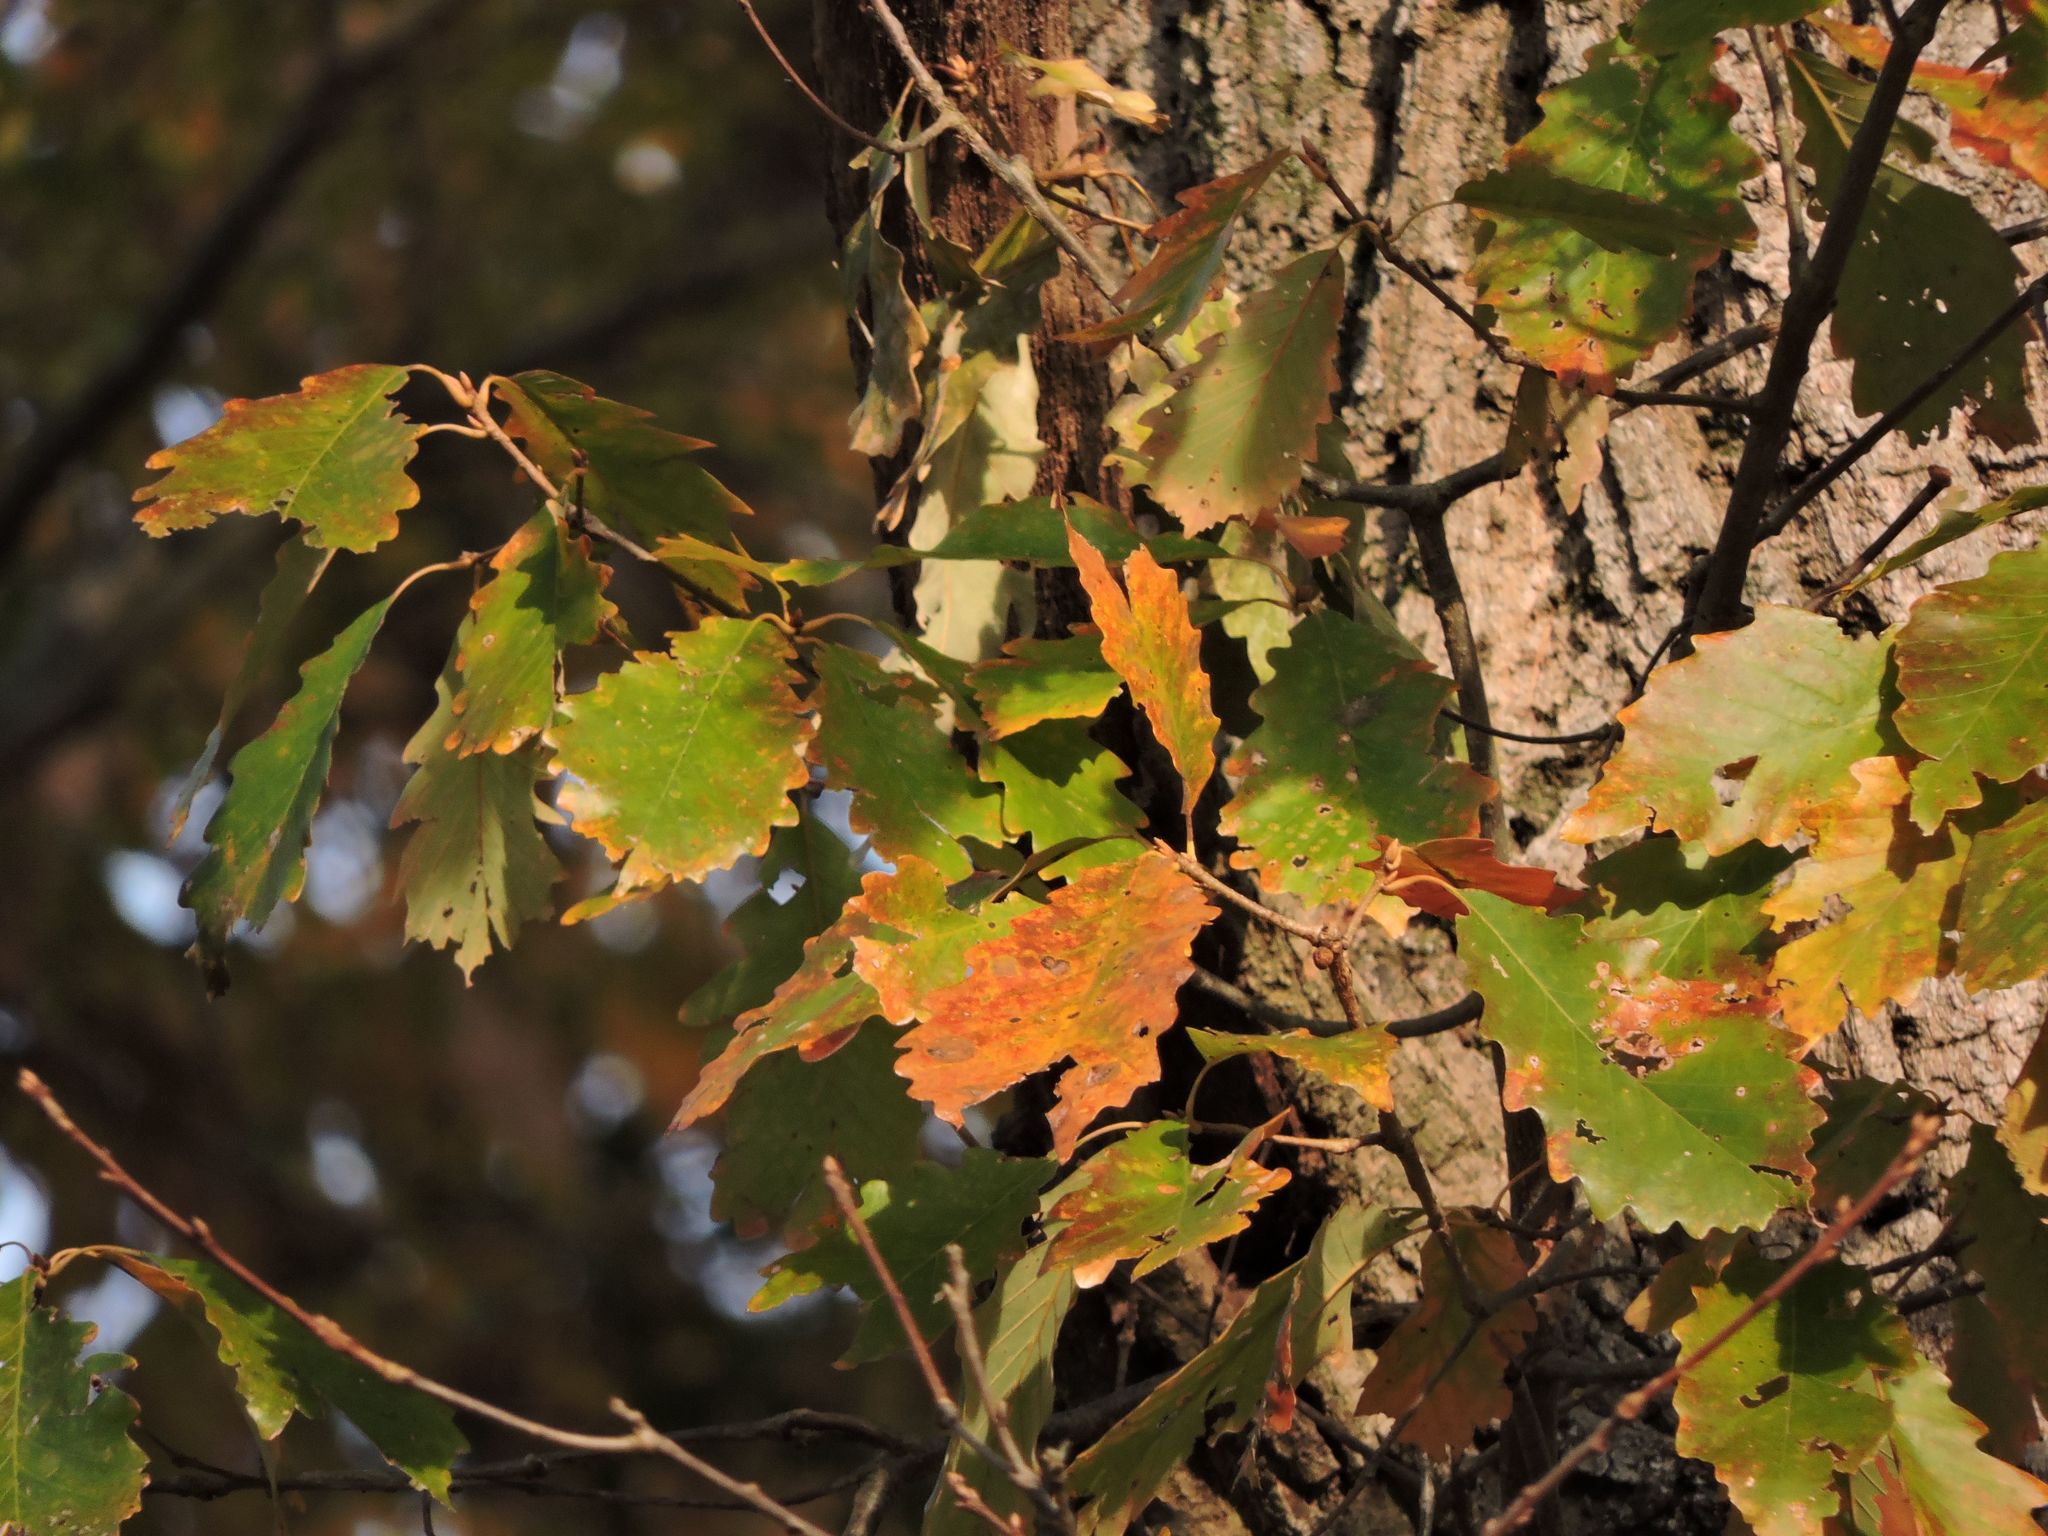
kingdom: Plantae
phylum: Tracheophyta
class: Magnoliopsida
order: Fagales
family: Fagaceae
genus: Quercus
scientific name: Quercus montana
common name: Chestnut oak
